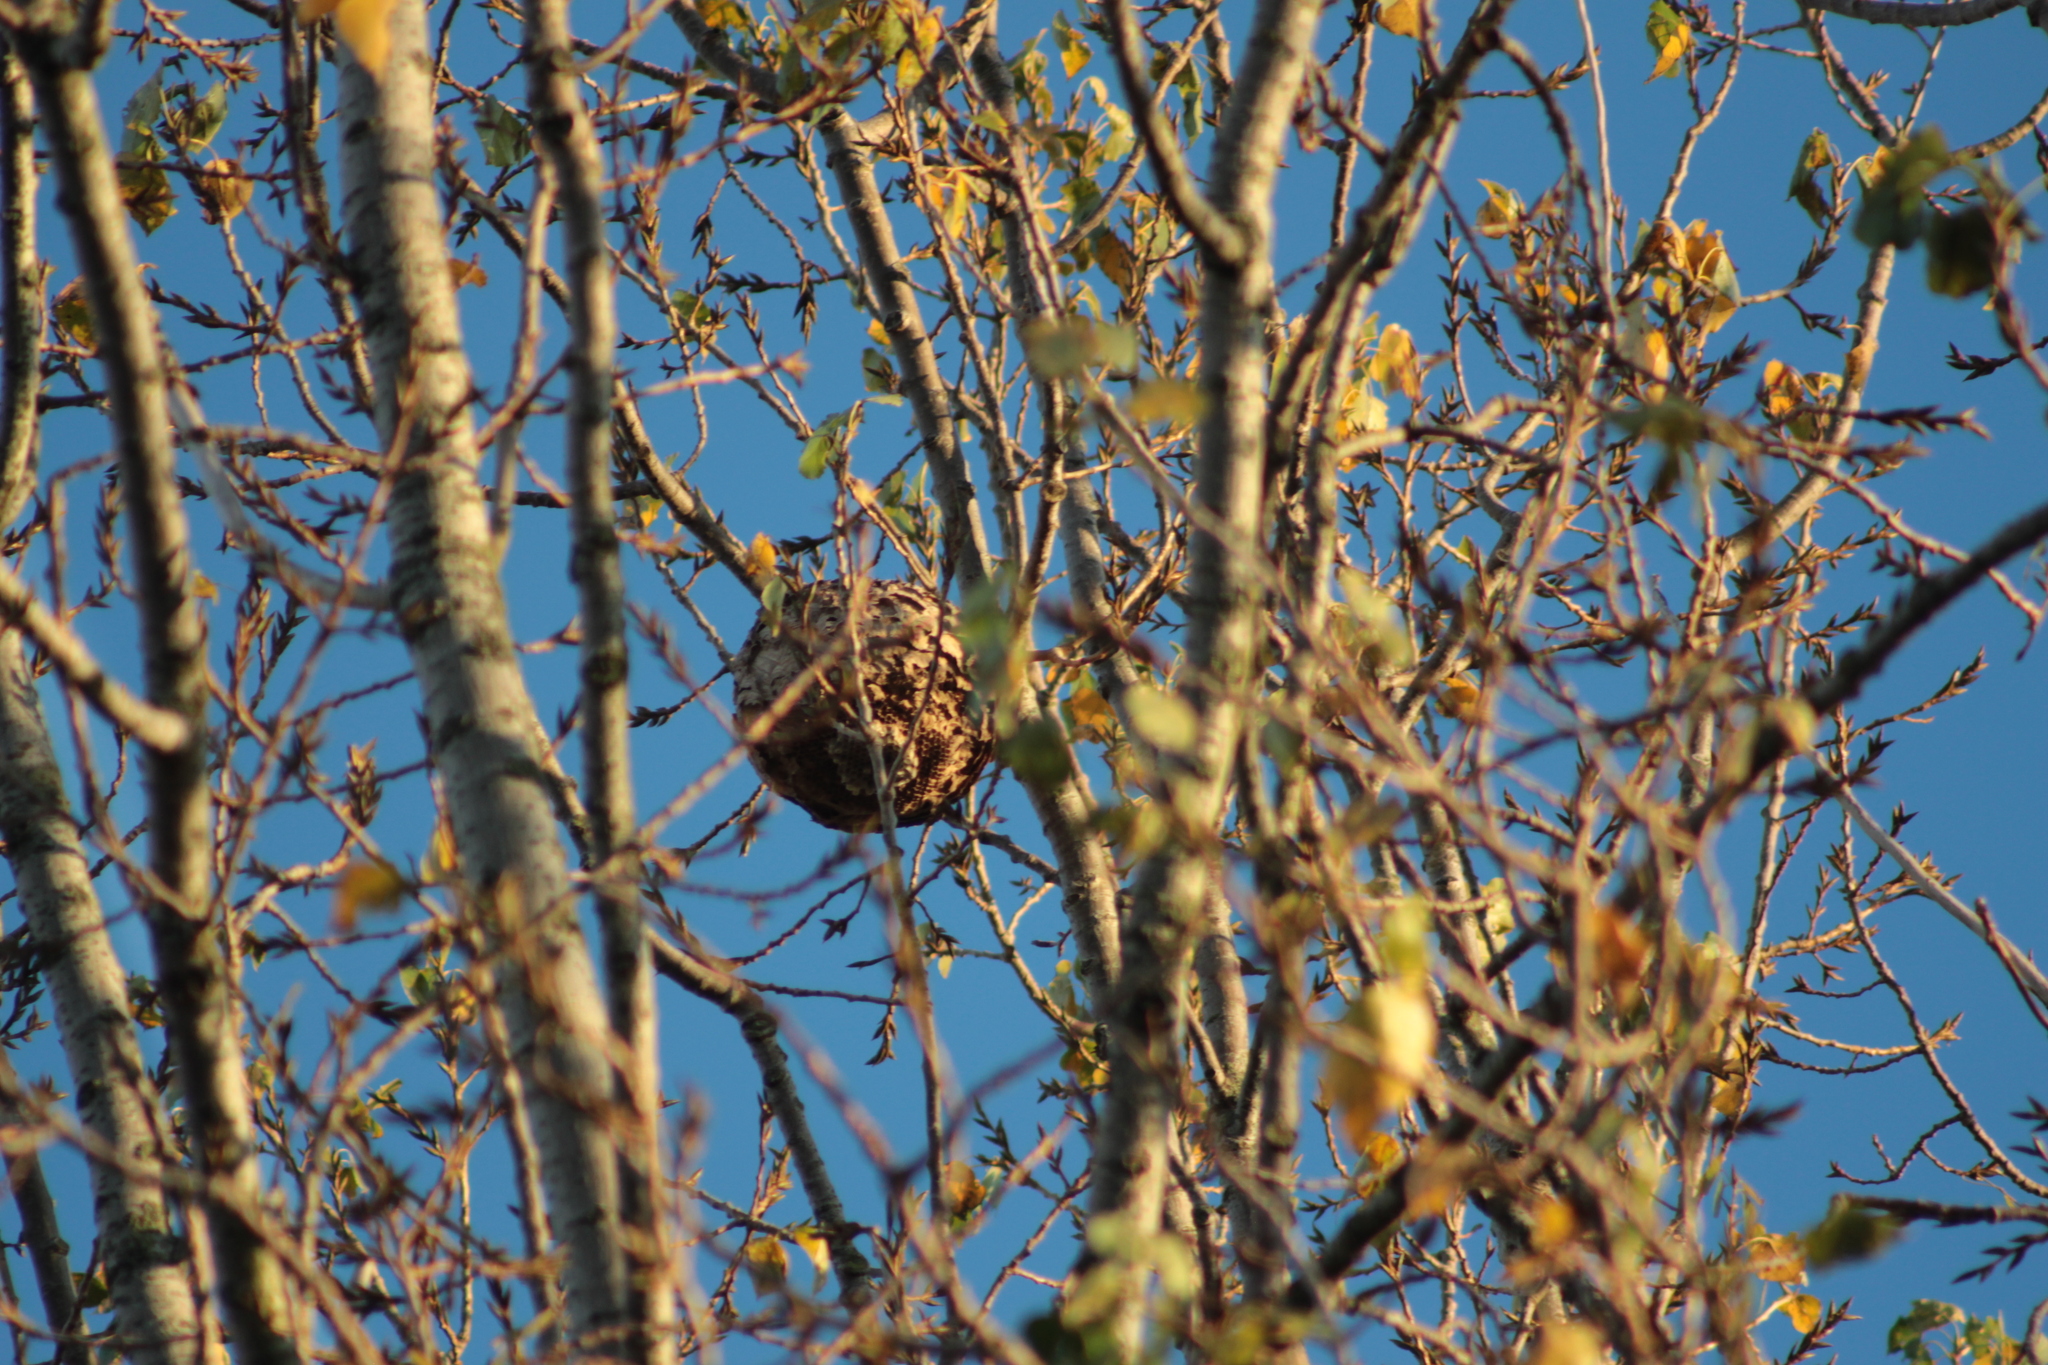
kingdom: Animalia
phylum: Arthropoda
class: Insecta
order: Hymenoptera
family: Vespidae
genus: Vespa
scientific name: Vespa velutina
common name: Asian hornet
